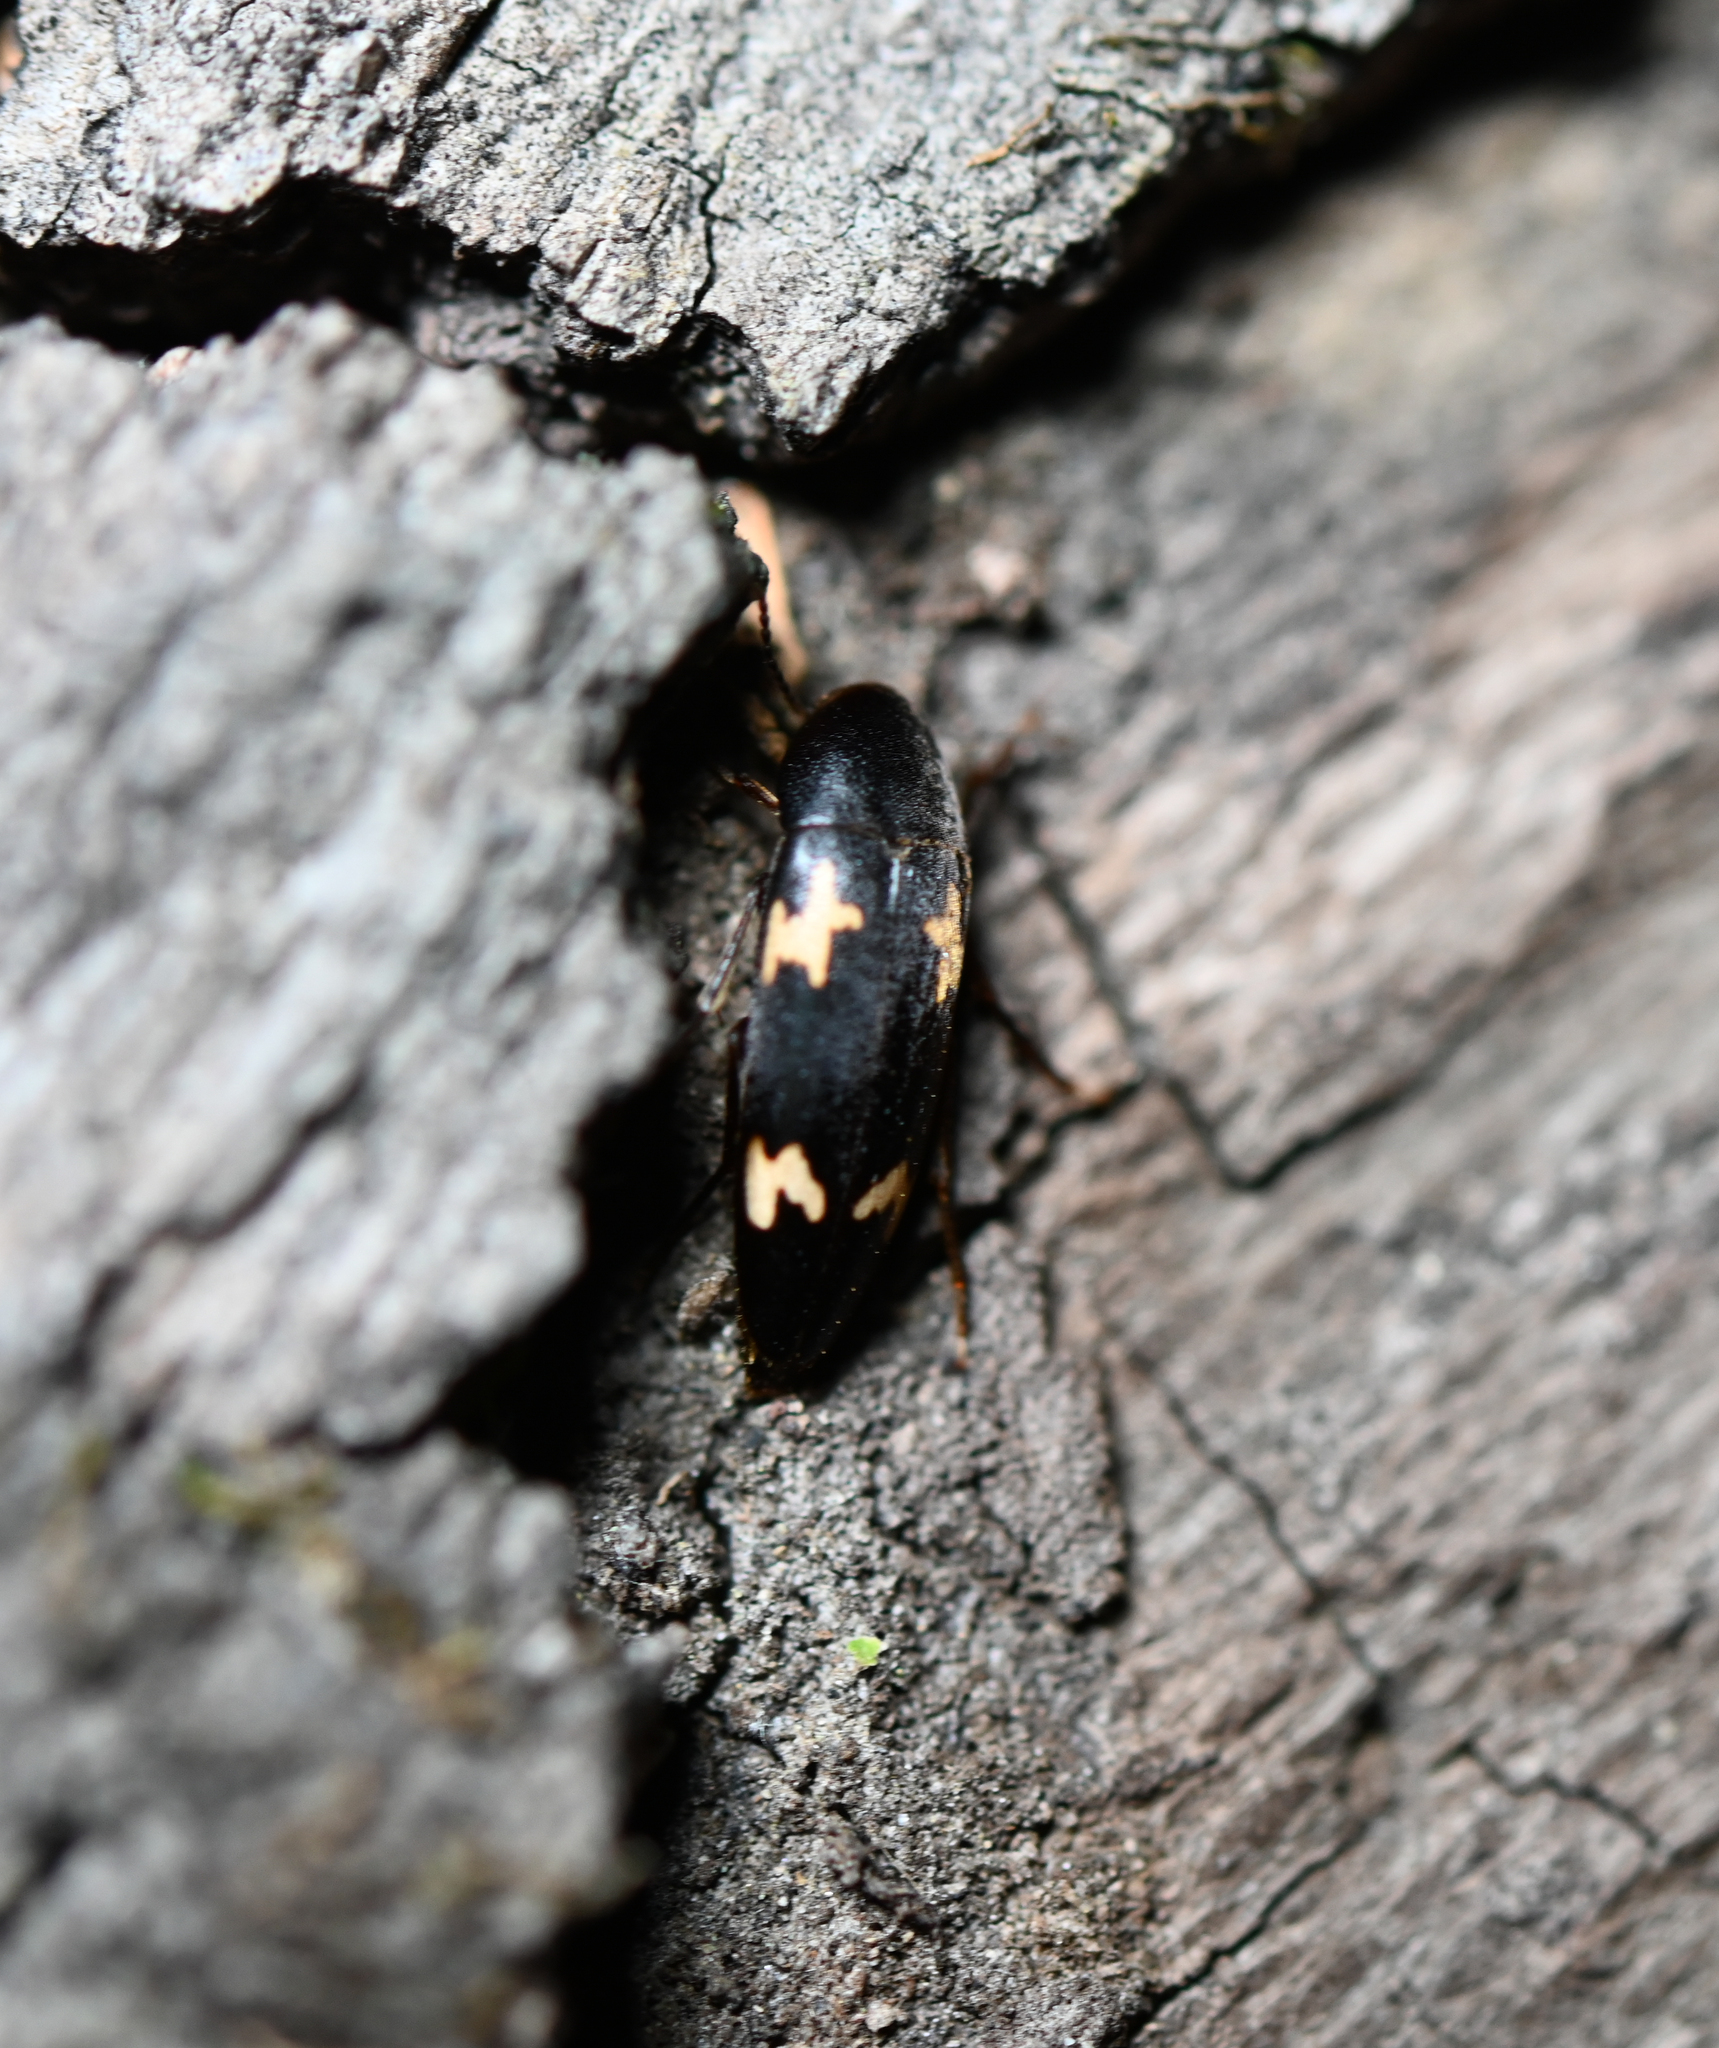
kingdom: Animalia
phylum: Arthropoda
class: Insecta
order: Coleoptera
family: Melandryidae
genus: Dircaea
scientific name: Dircaea liturata
